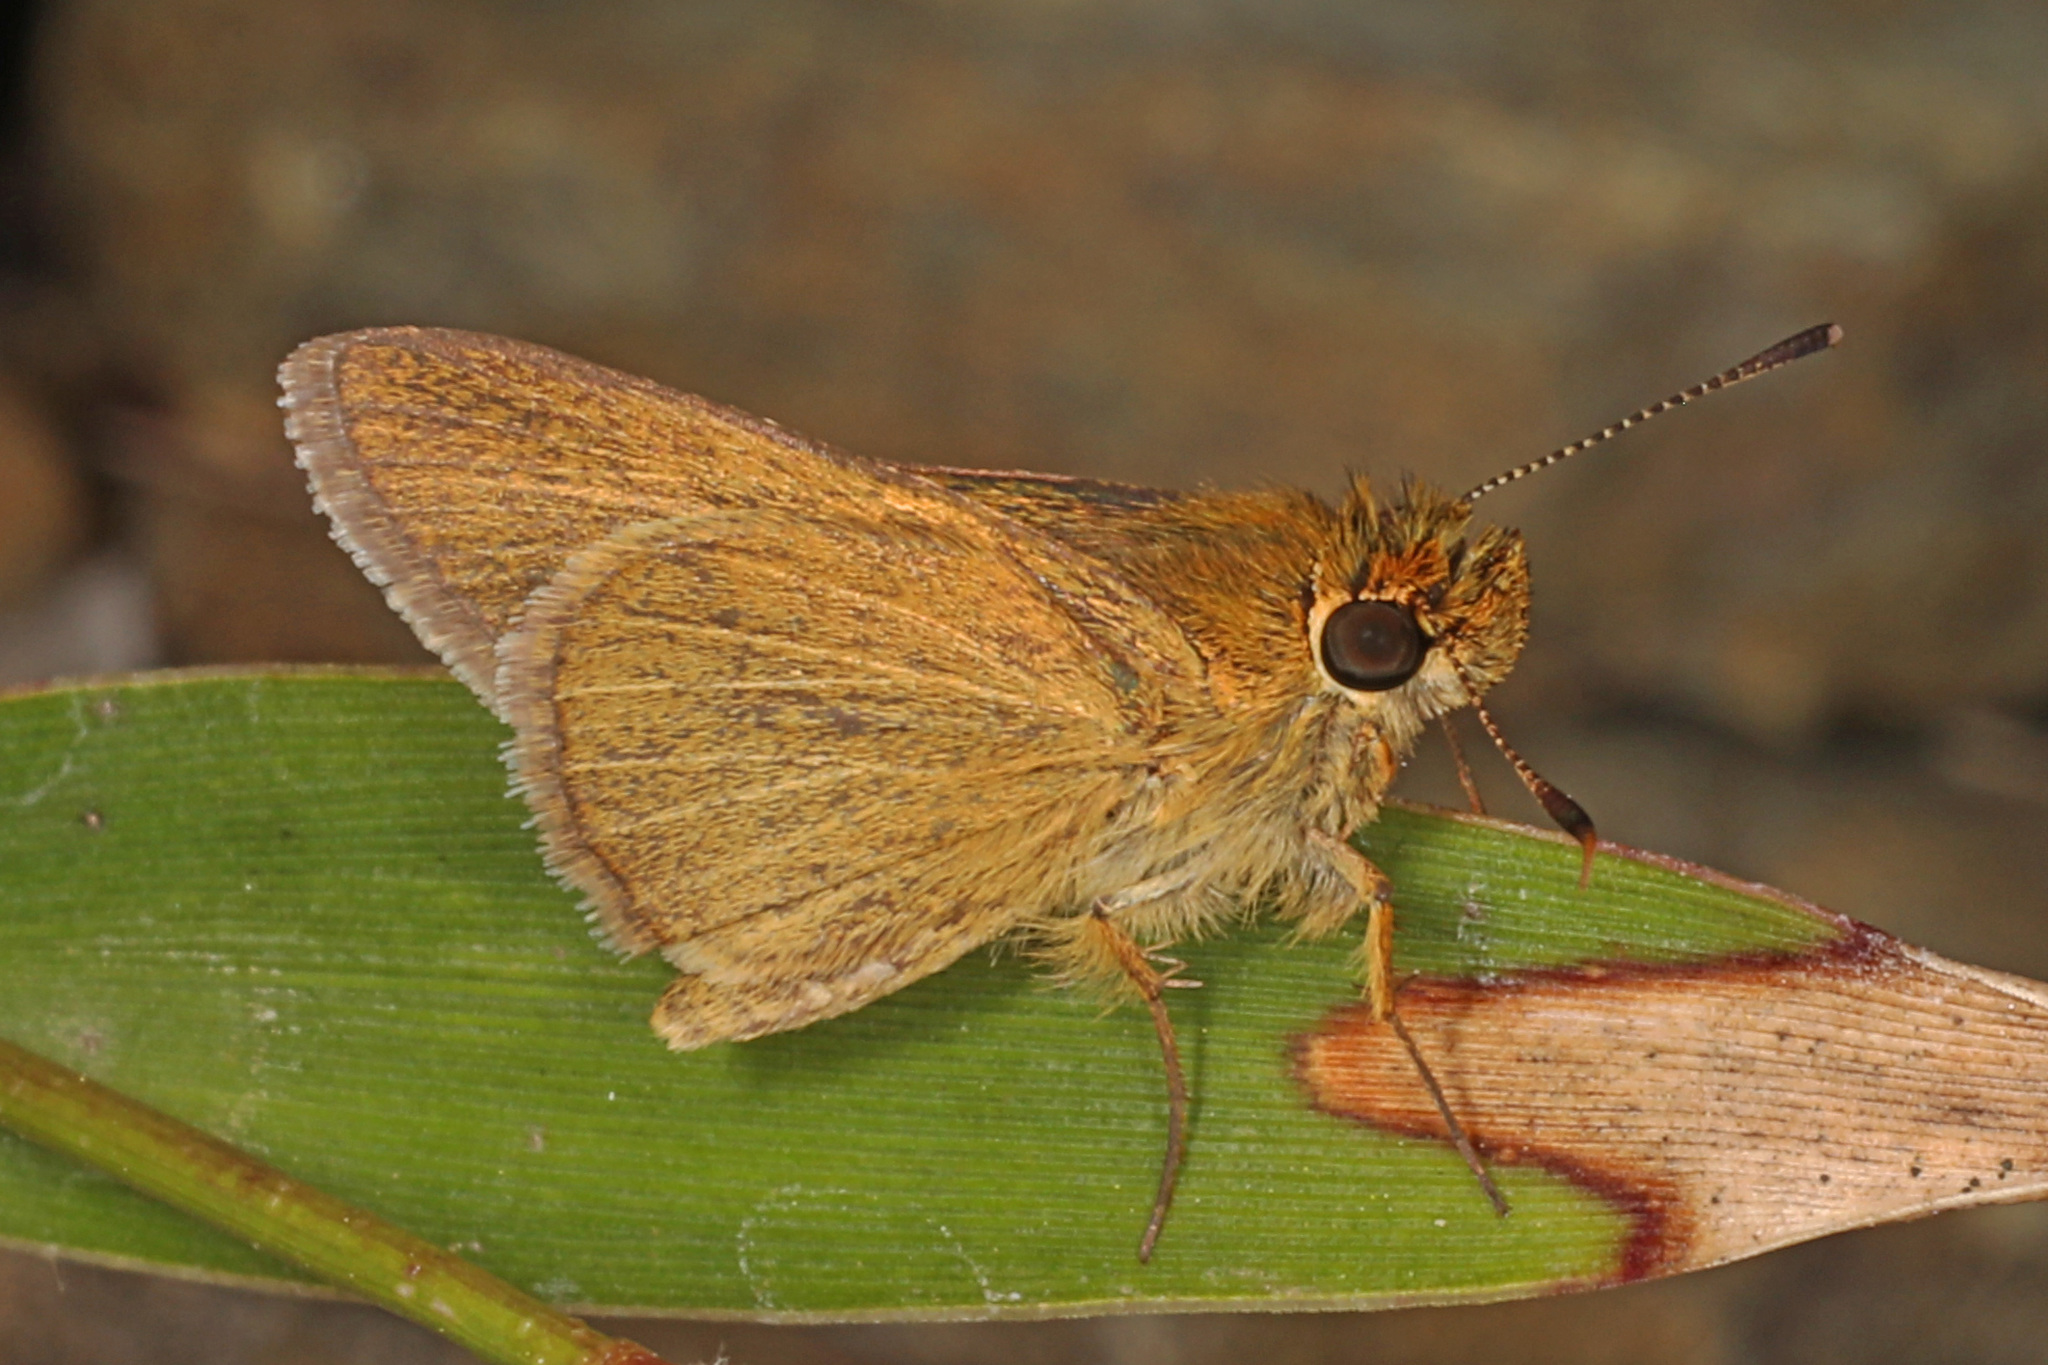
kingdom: Animalia
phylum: Arthropoda
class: Insecta
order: Lepidoptera
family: Hesperiidae
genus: Nastra
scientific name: Nastra lherminier
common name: Swarthy skipper
